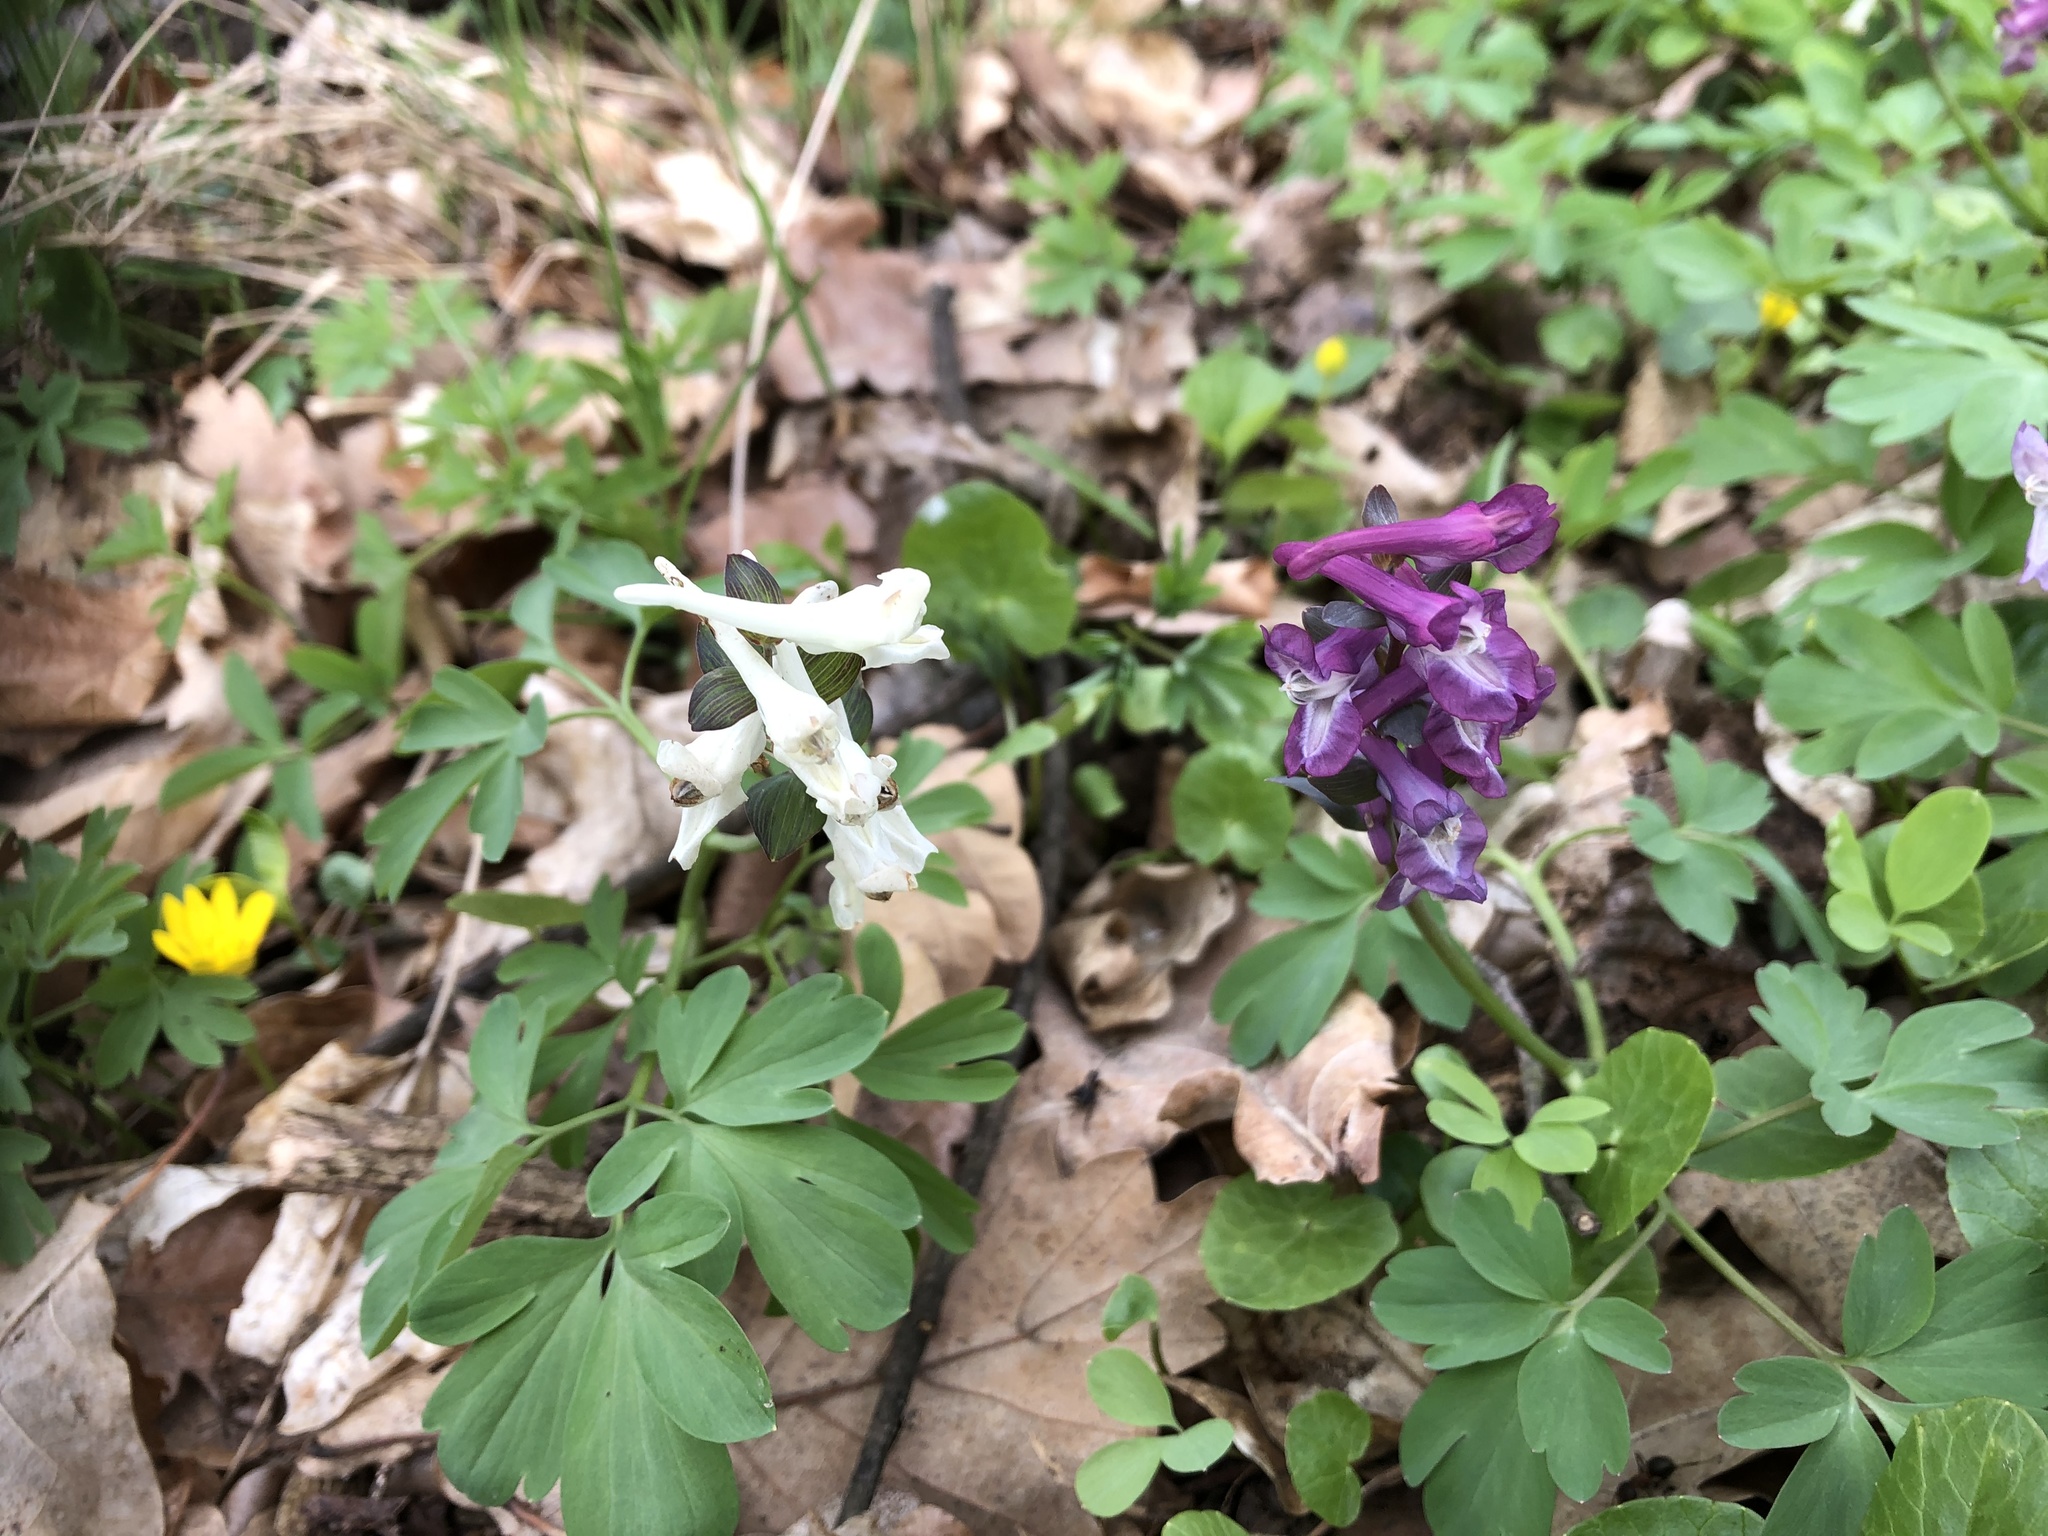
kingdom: Plantae
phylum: Tracheophyta
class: Magnoliopsida
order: Ranunculales
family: Papaveraceae
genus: Corydalis
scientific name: Corydalis cava
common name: Hollowroot
